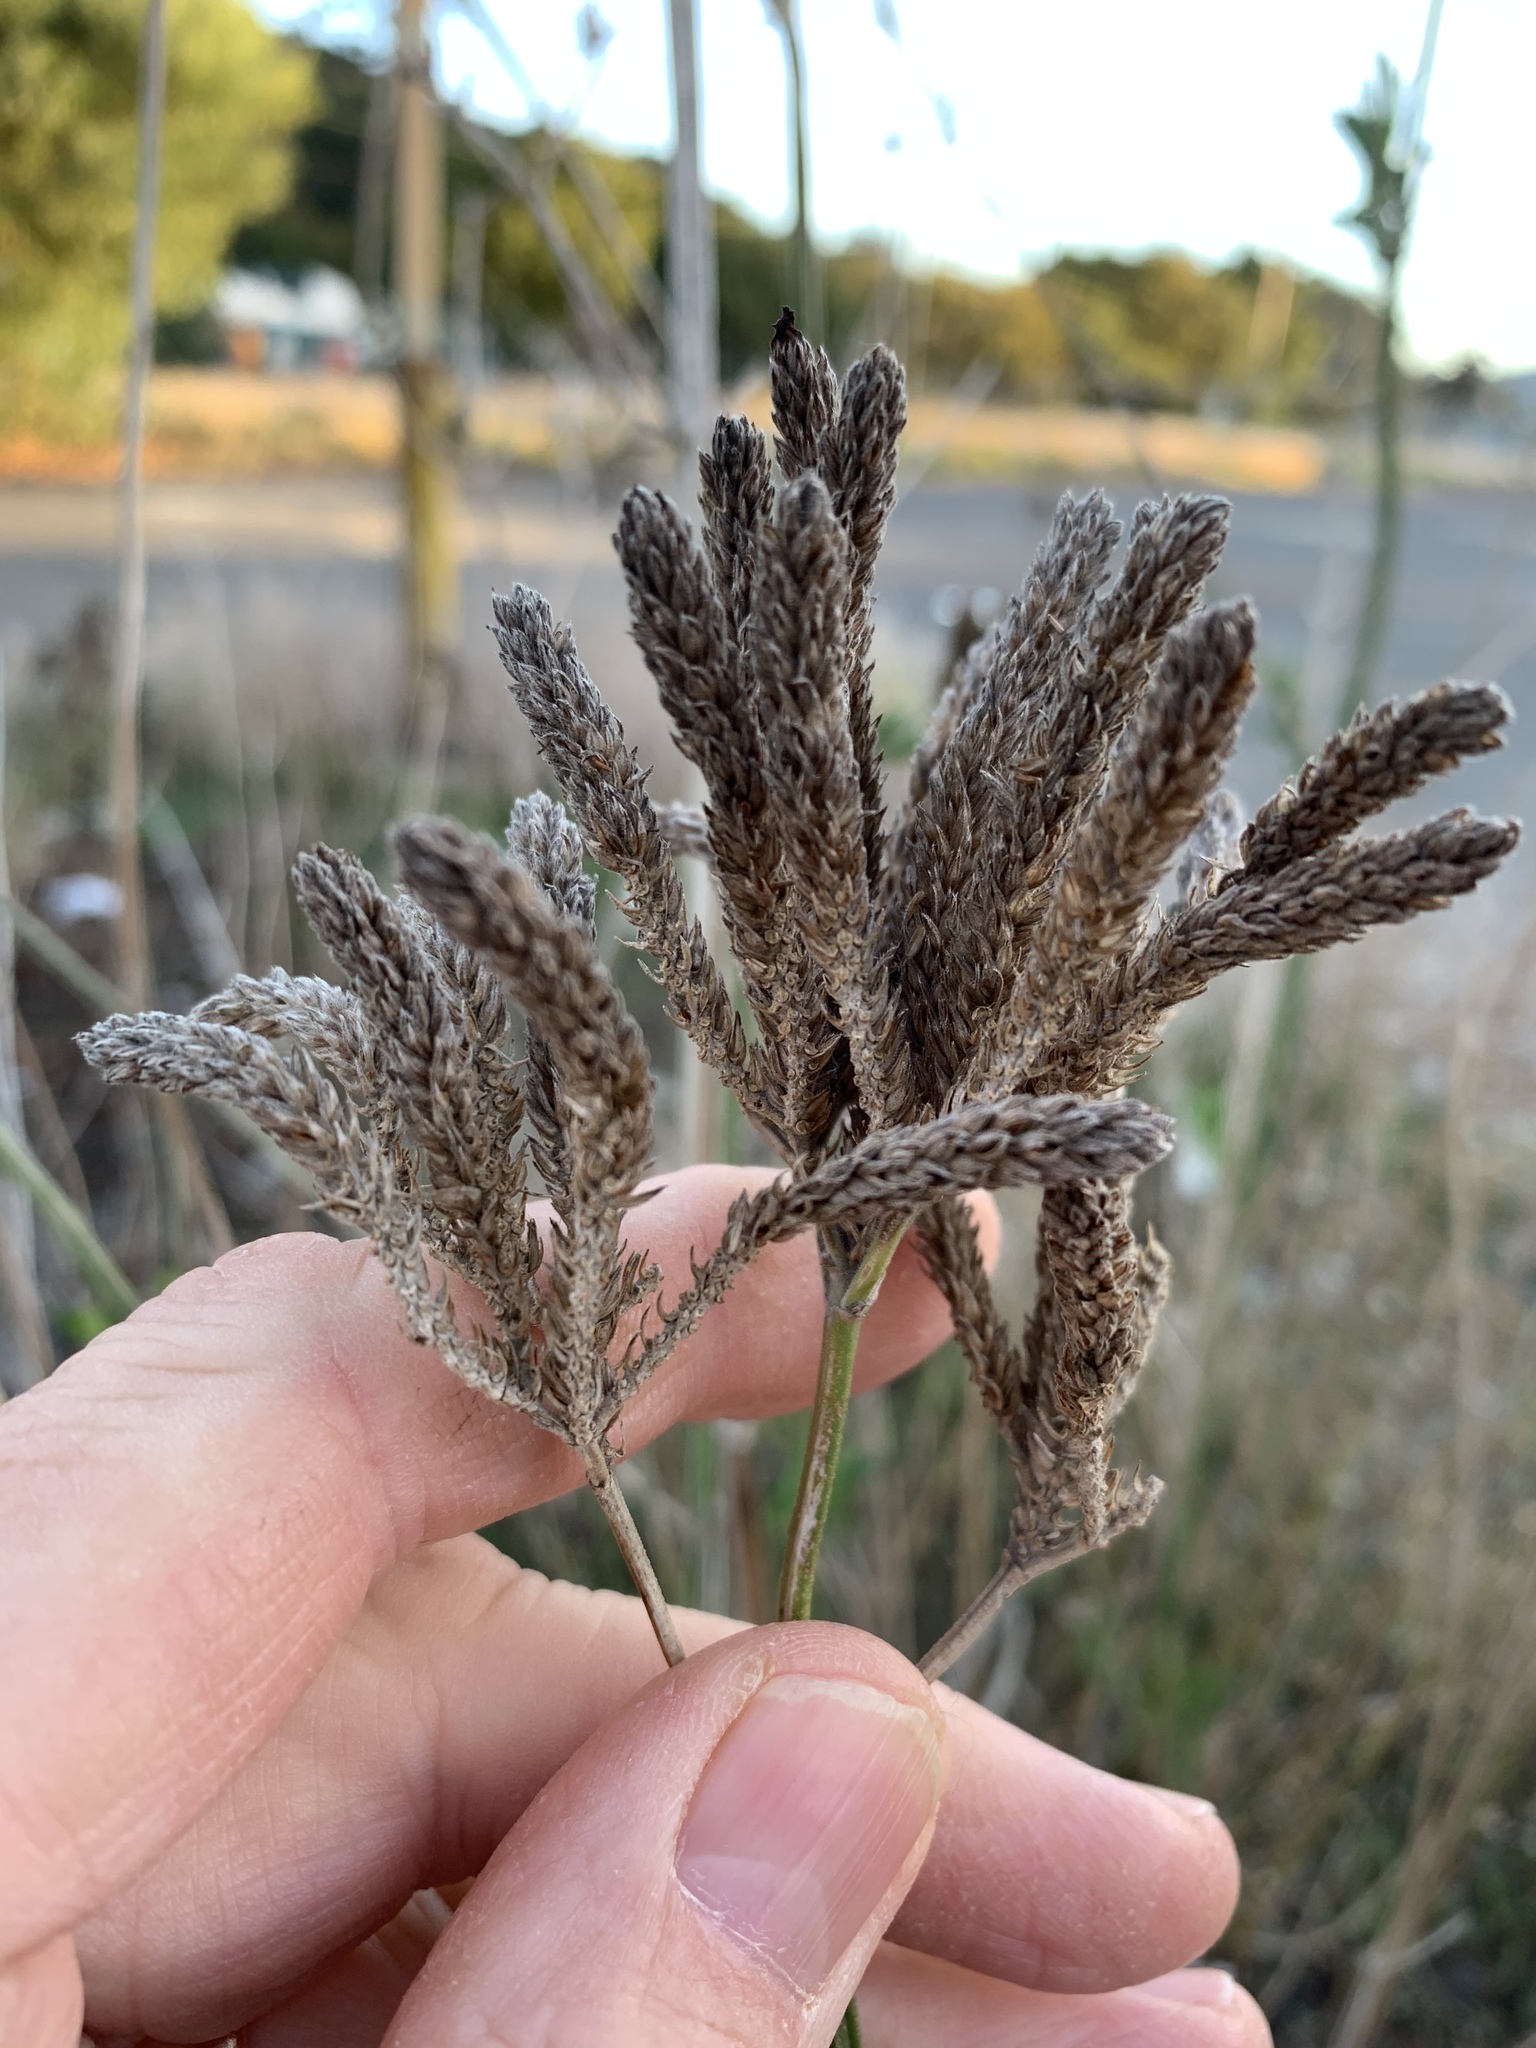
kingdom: Plantae
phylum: Tracheophyta
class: Magnoliopsida
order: Lamiales
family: Verbenaceae
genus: Verbena
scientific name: Verbena bonariensis
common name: Purpletop vervain
